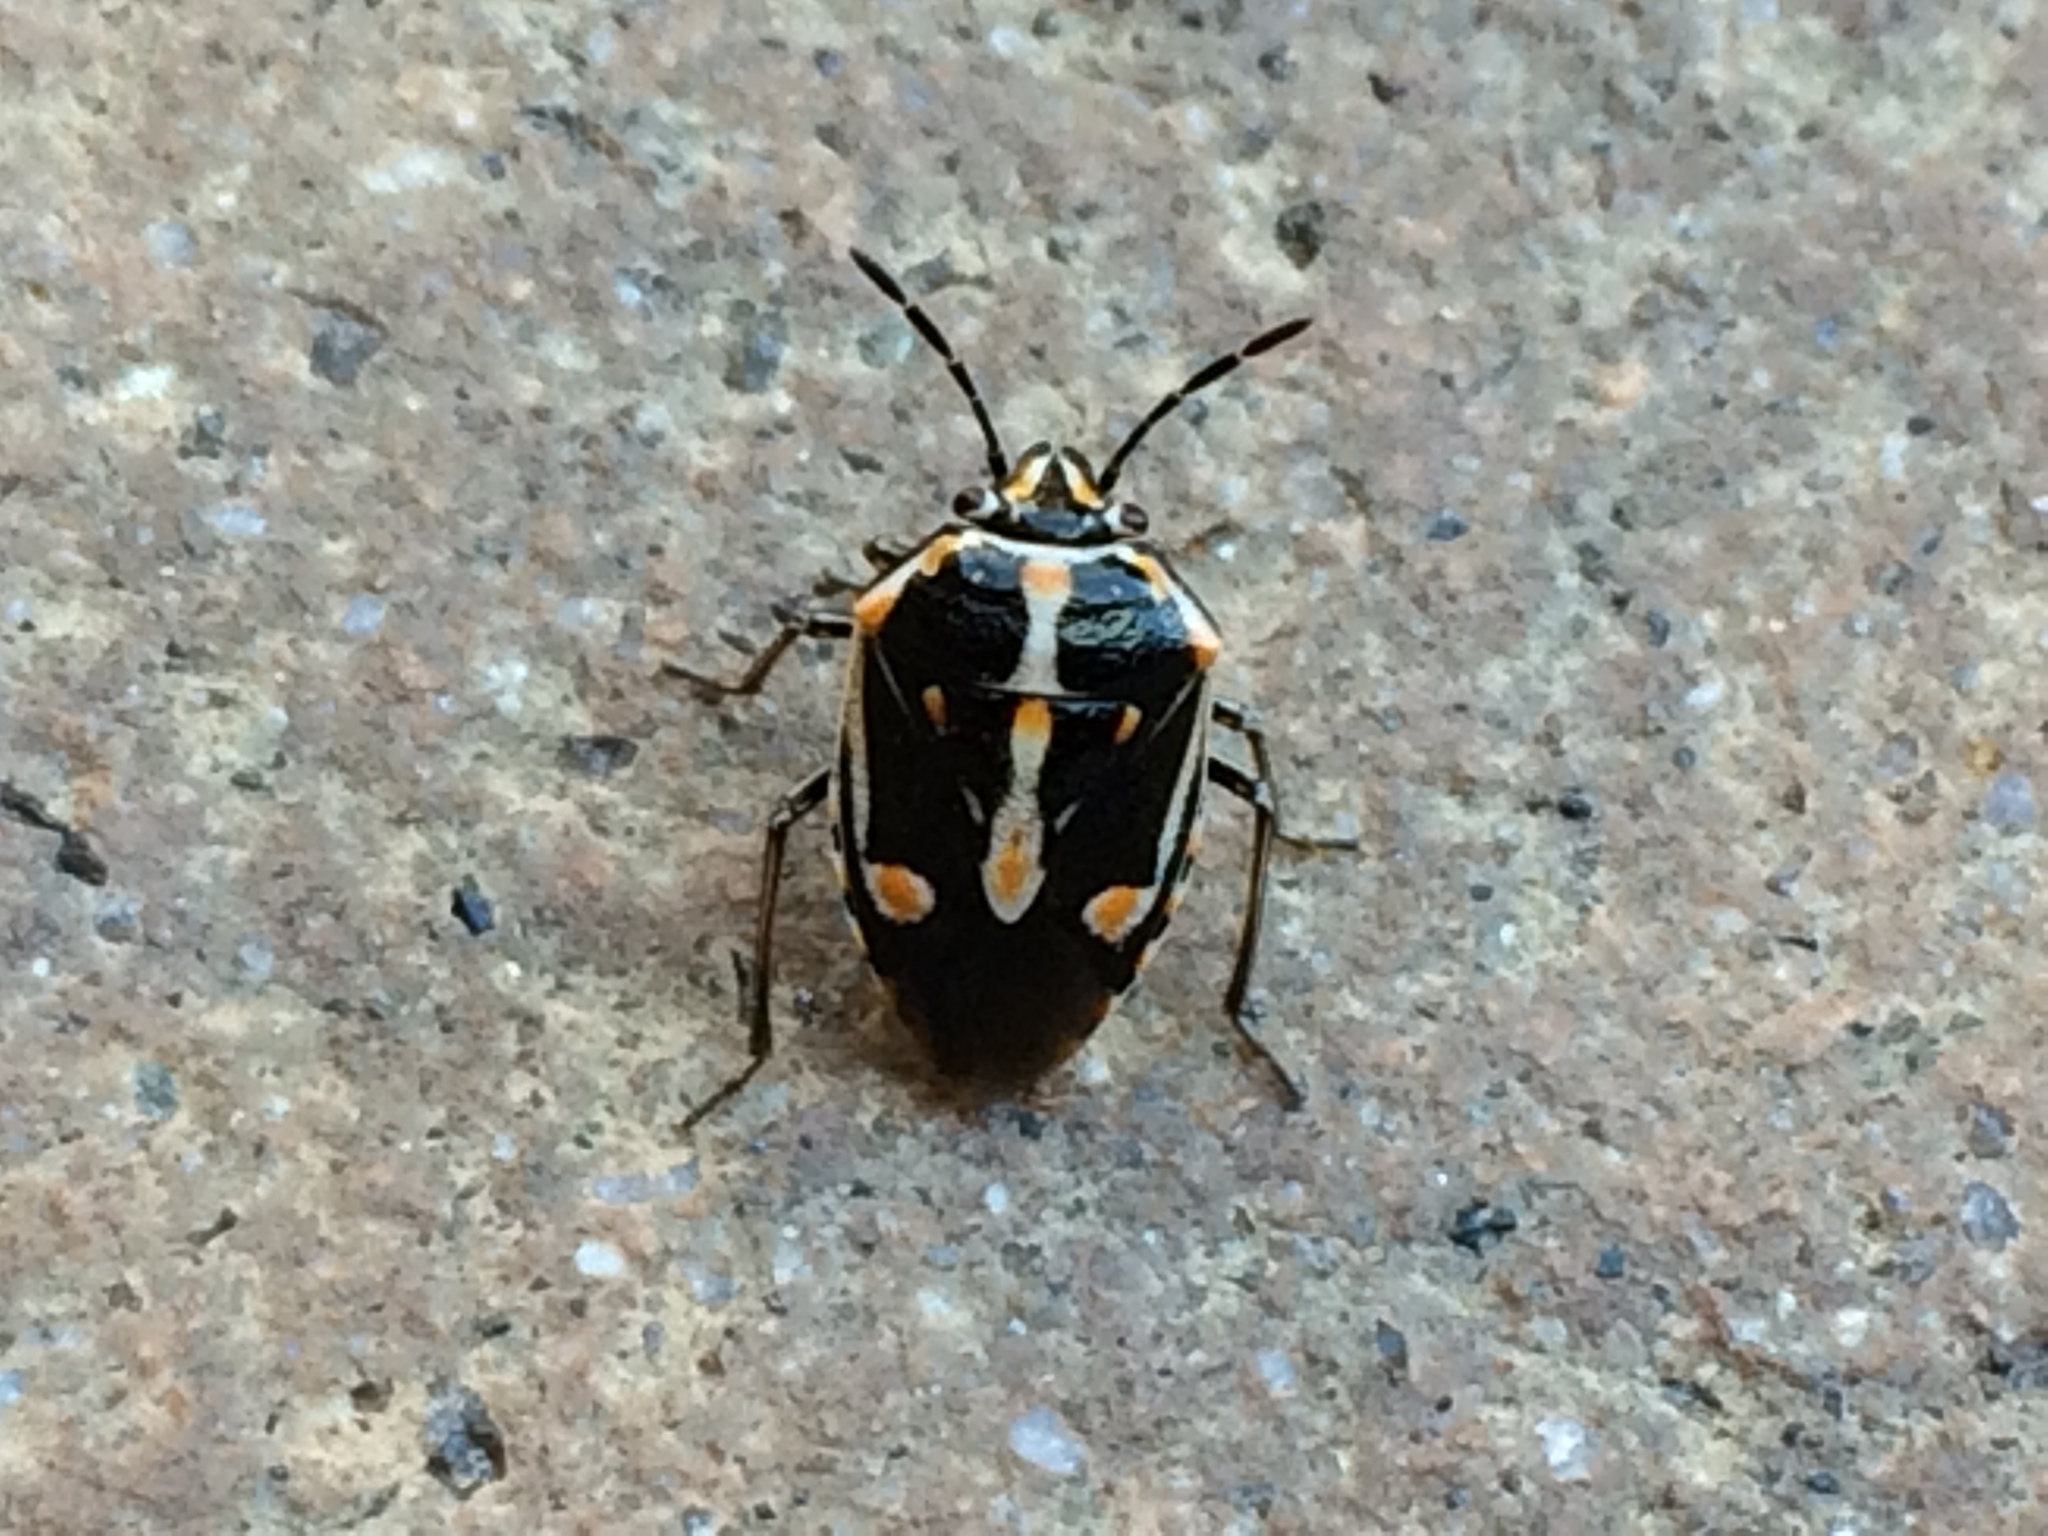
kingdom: Animalia
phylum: Arthropoda
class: Insecta
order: Hemiptera
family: Pentatomidae
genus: Bagrada
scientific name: Bagrada hilaris
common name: Bagrada bug
